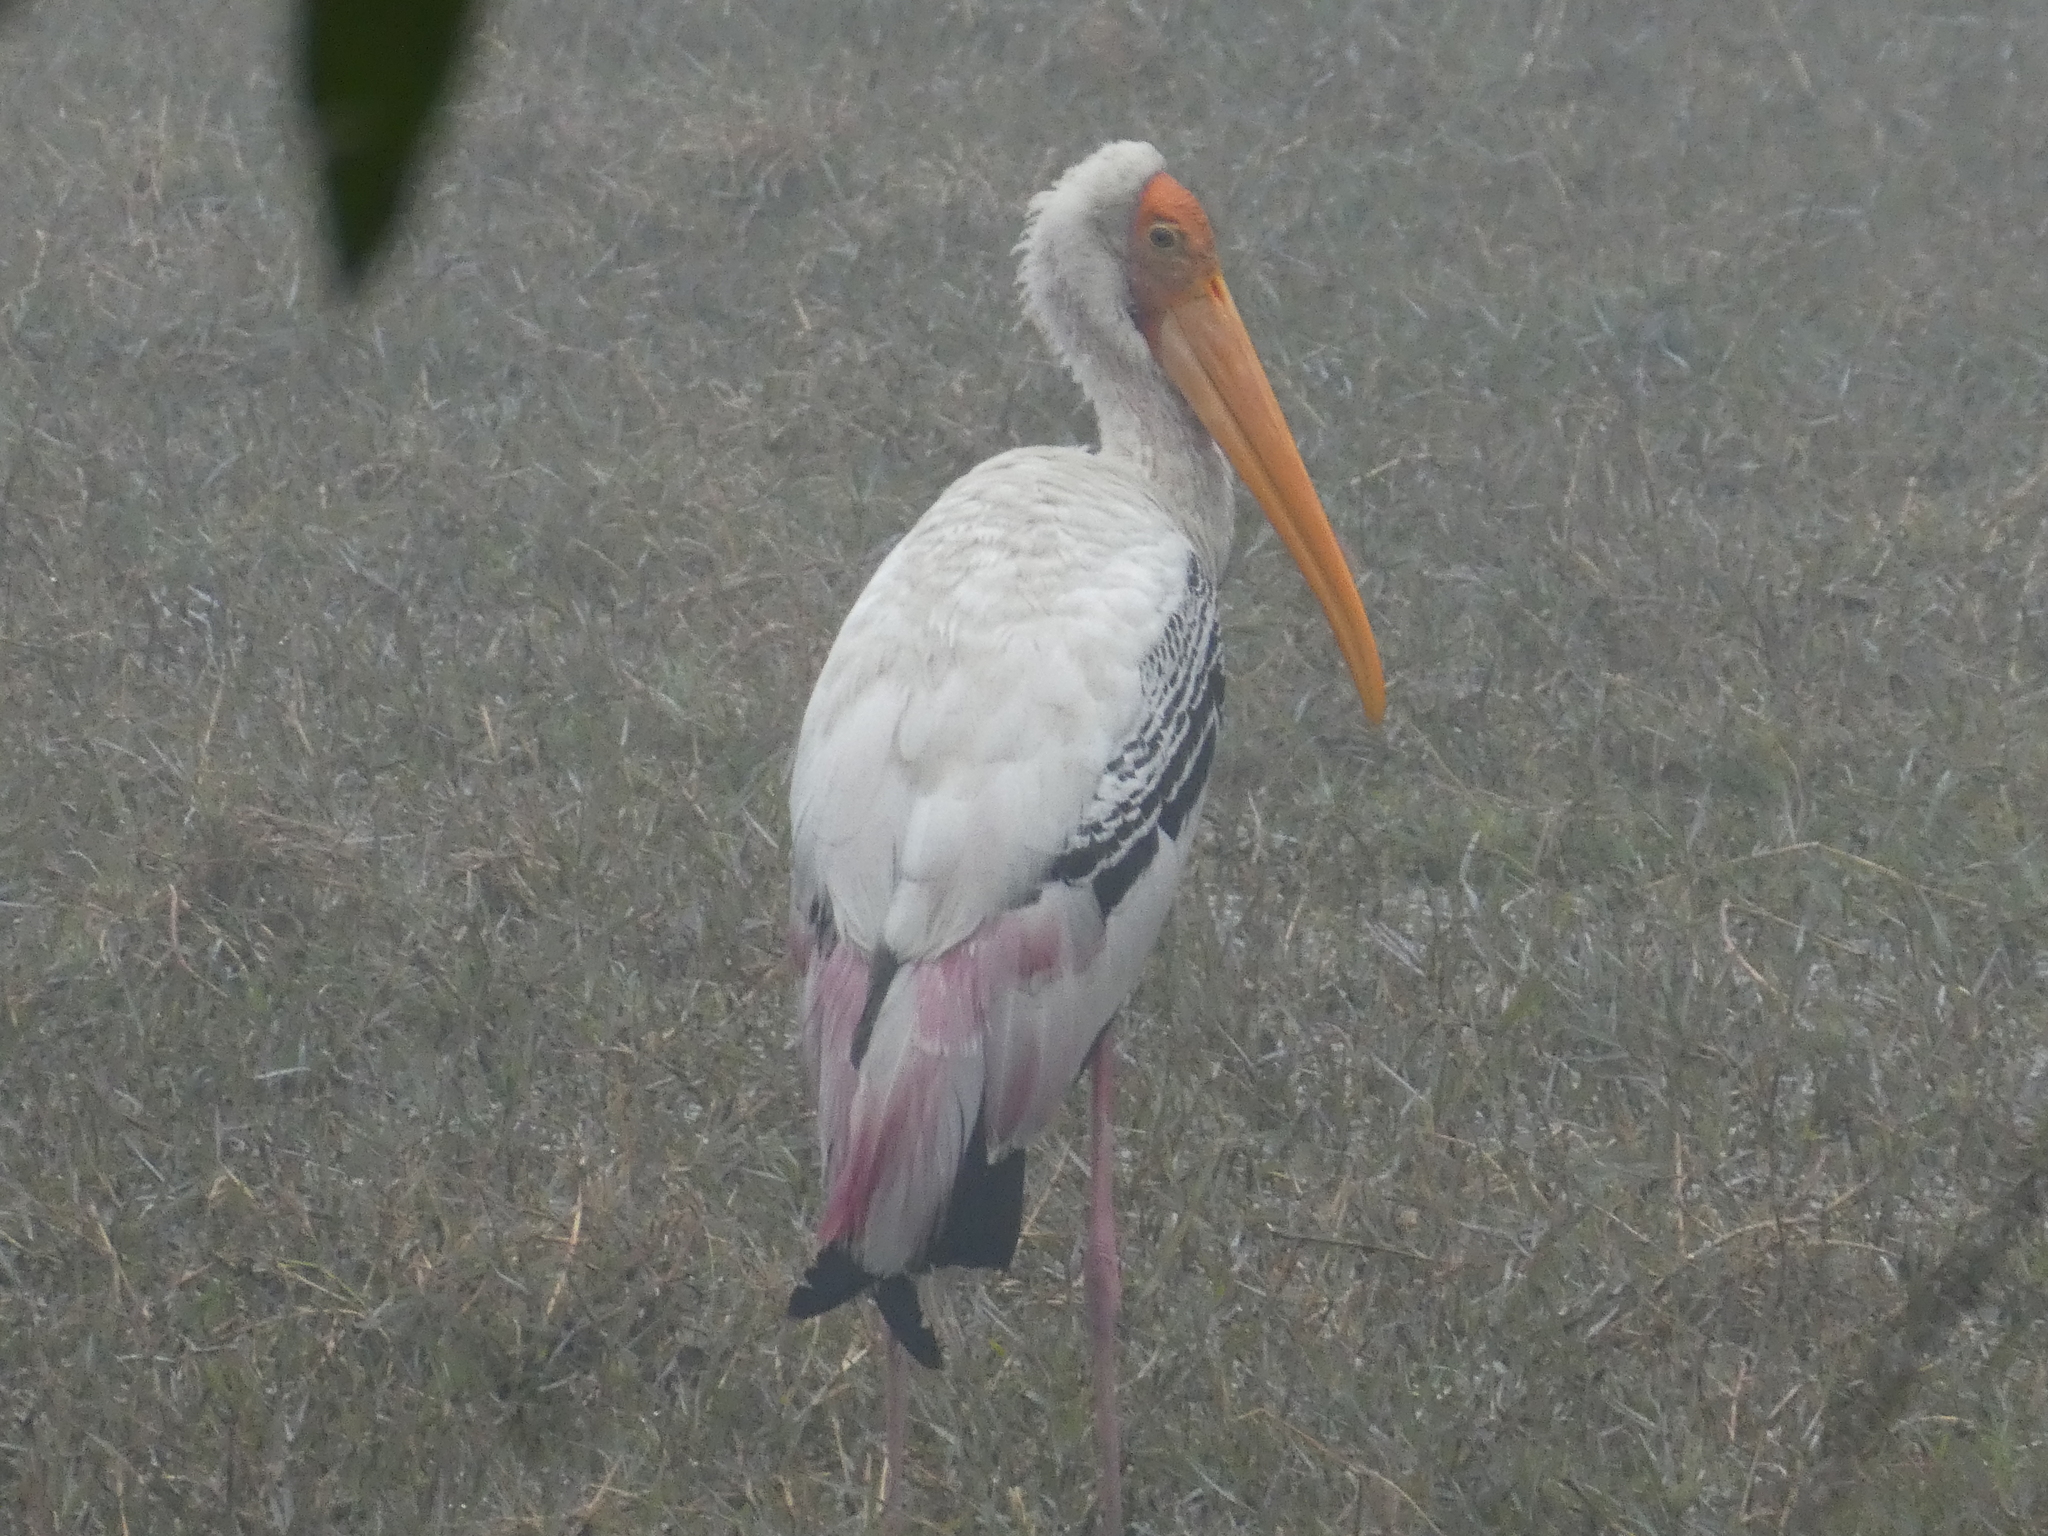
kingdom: Animalia
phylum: Chordata
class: Aves
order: Ciconiiformes
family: Ciconiidae
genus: Mycteria
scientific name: Mycteria leucocephala
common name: Painted stork
